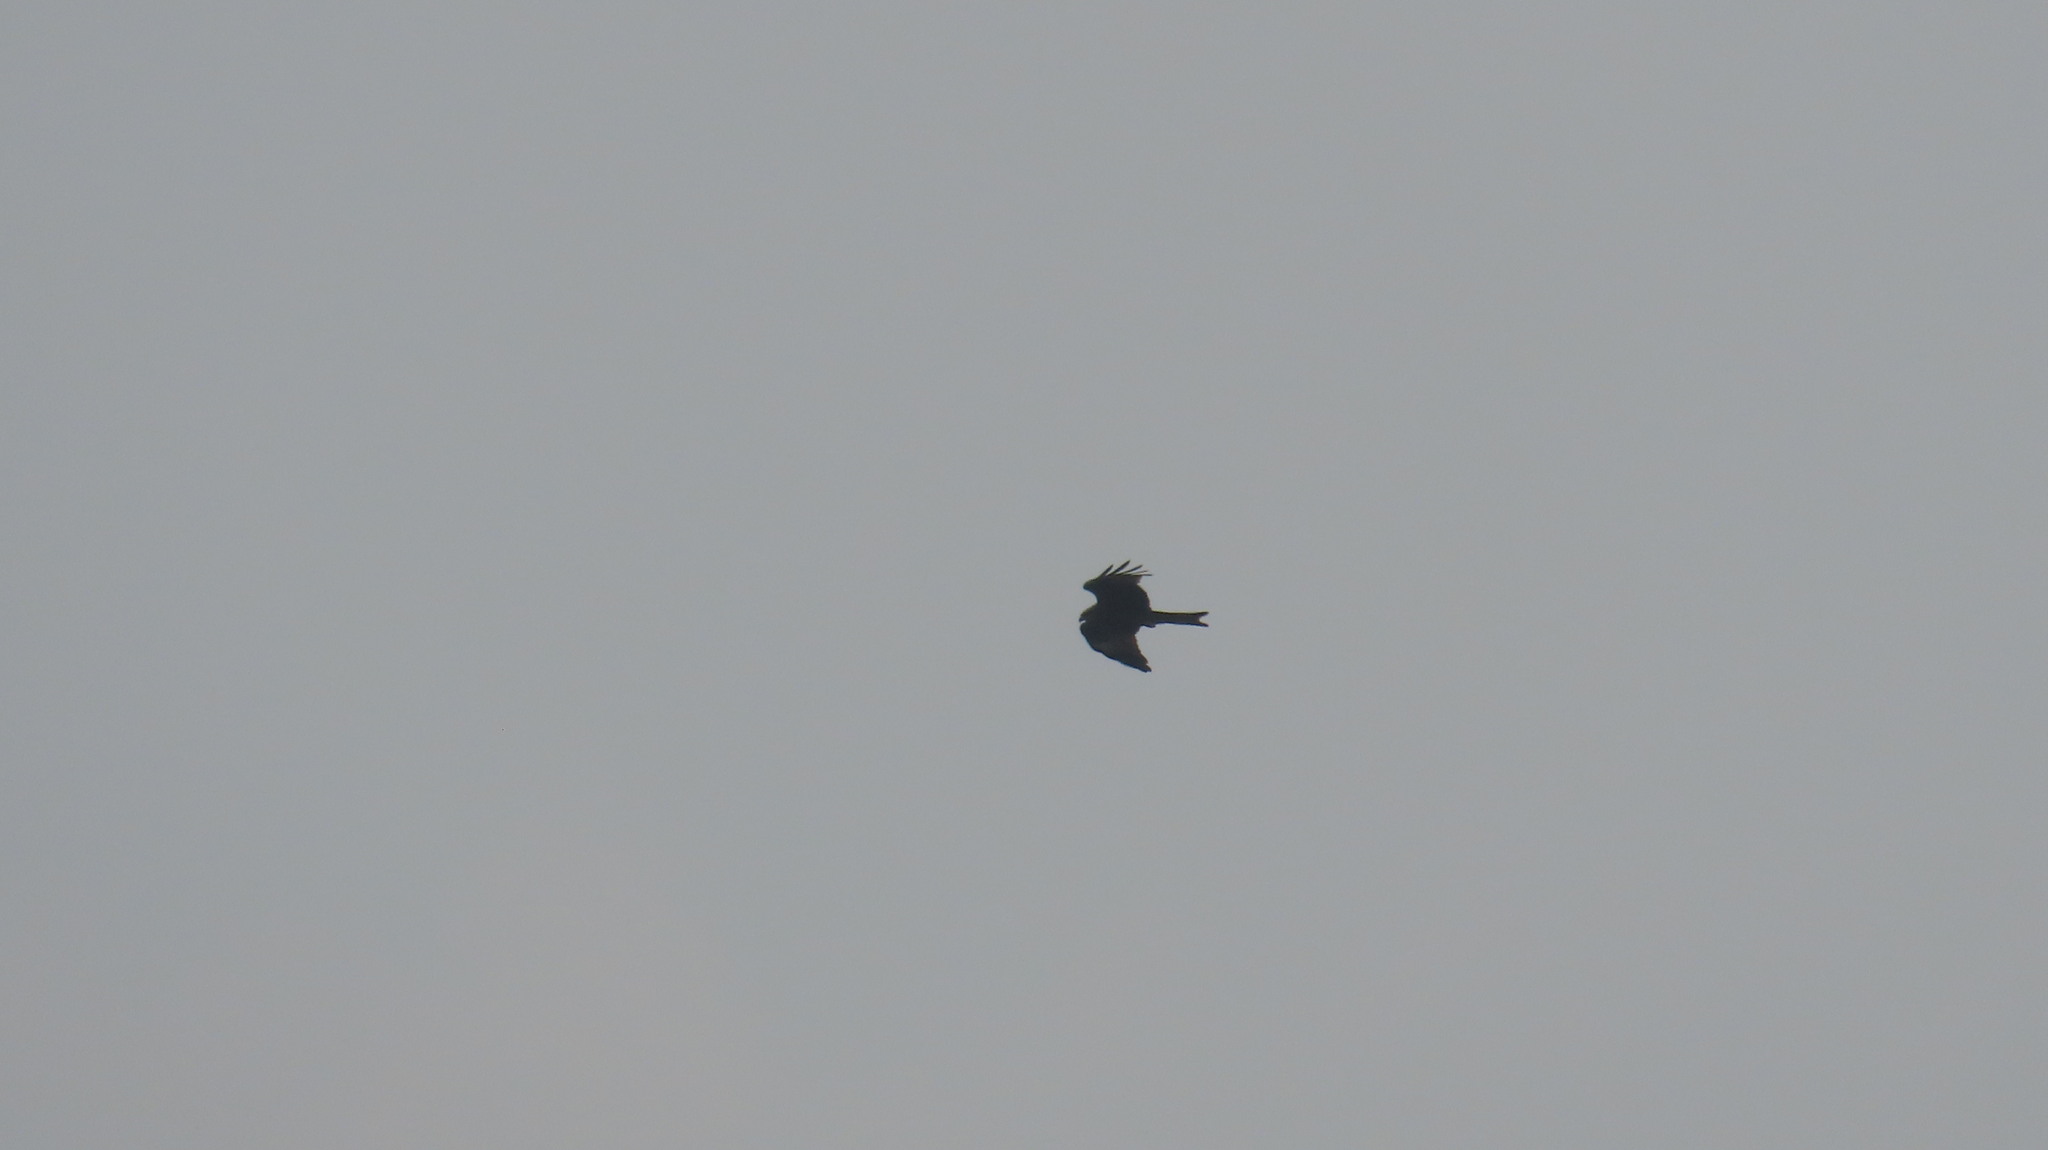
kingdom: Animalia
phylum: Chordata
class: Aves
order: Accipitriformes
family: Accipitridae
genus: Milvus
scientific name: Milvus migrans
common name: Black kite
